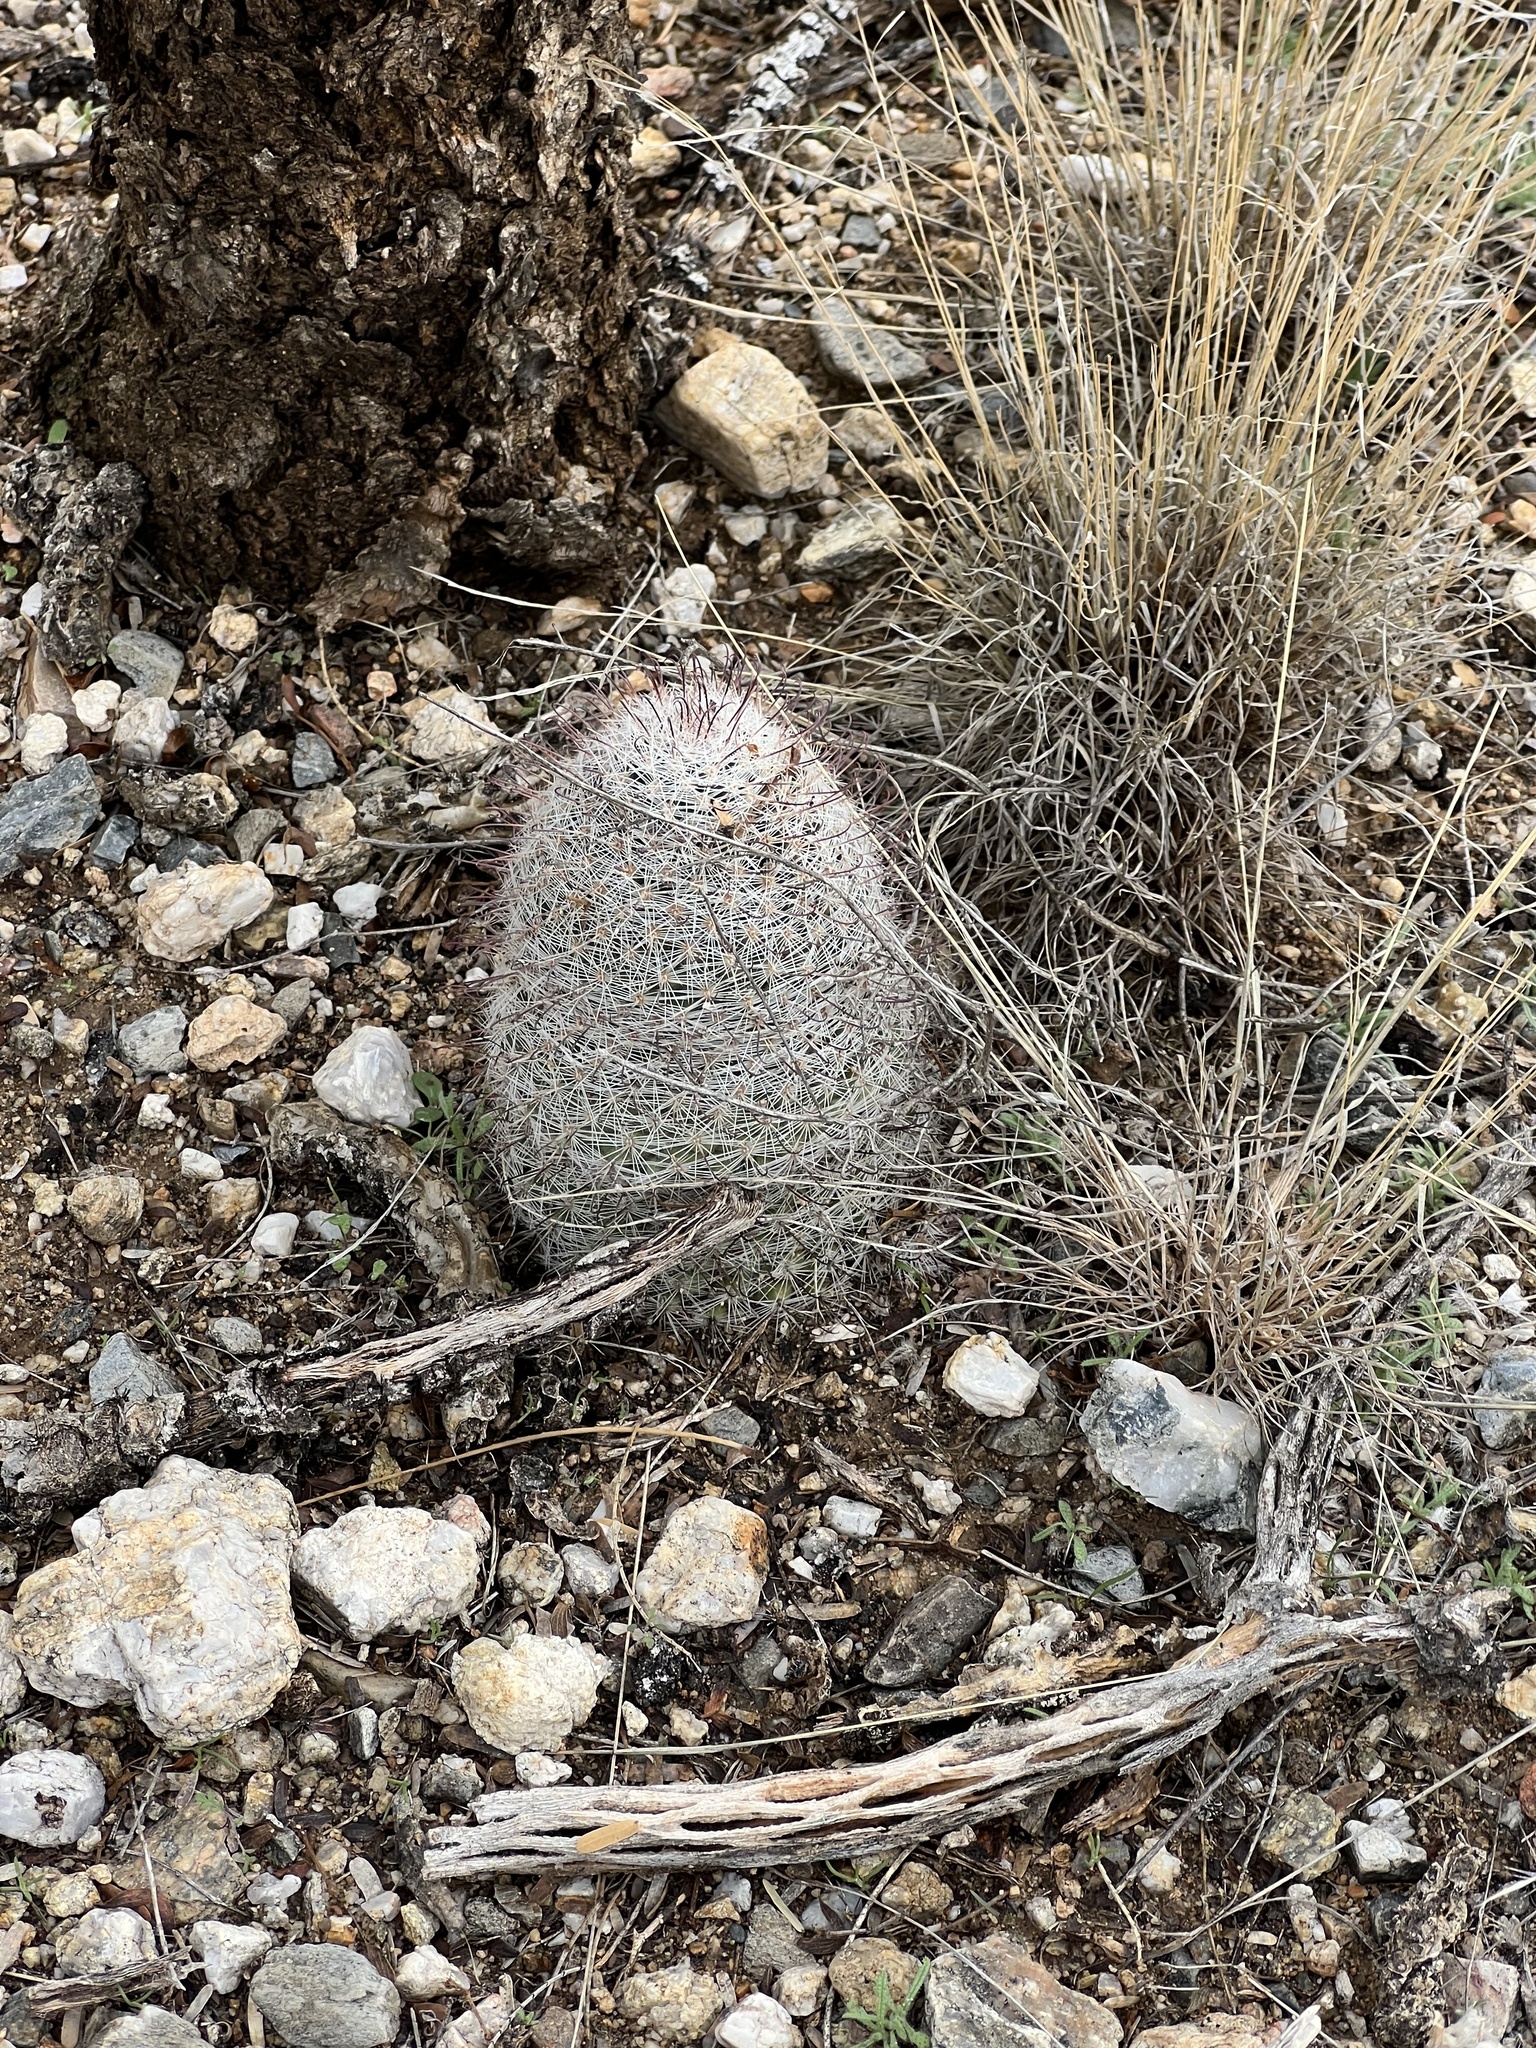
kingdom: Plantae
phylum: Tracheophyta
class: Magnoliopsida
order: Caryophyllales
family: Cactaceae
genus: Cochemiea
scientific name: Cochemiea grahamii
